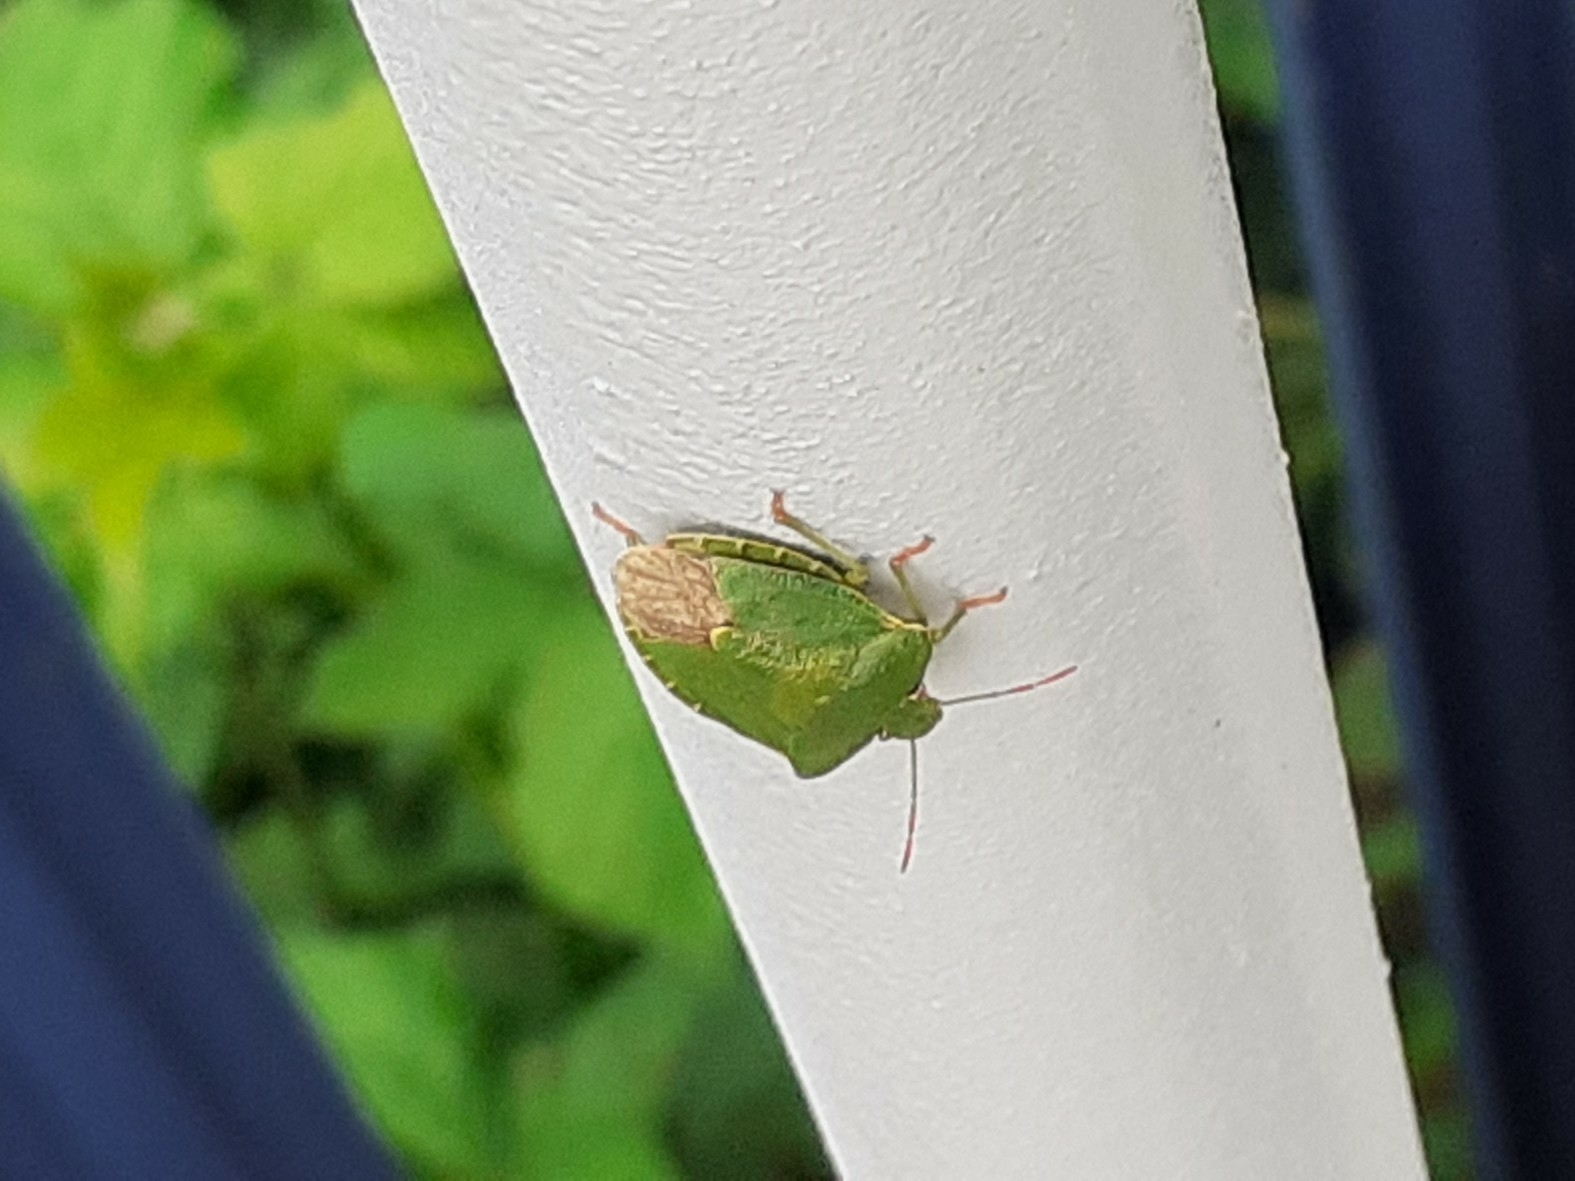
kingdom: Animalia
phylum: Arthropoda
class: Insecta
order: Hemiptera
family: Pentatomidae
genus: Palomena
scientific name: Palomena prasina
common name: Green shieldbug
